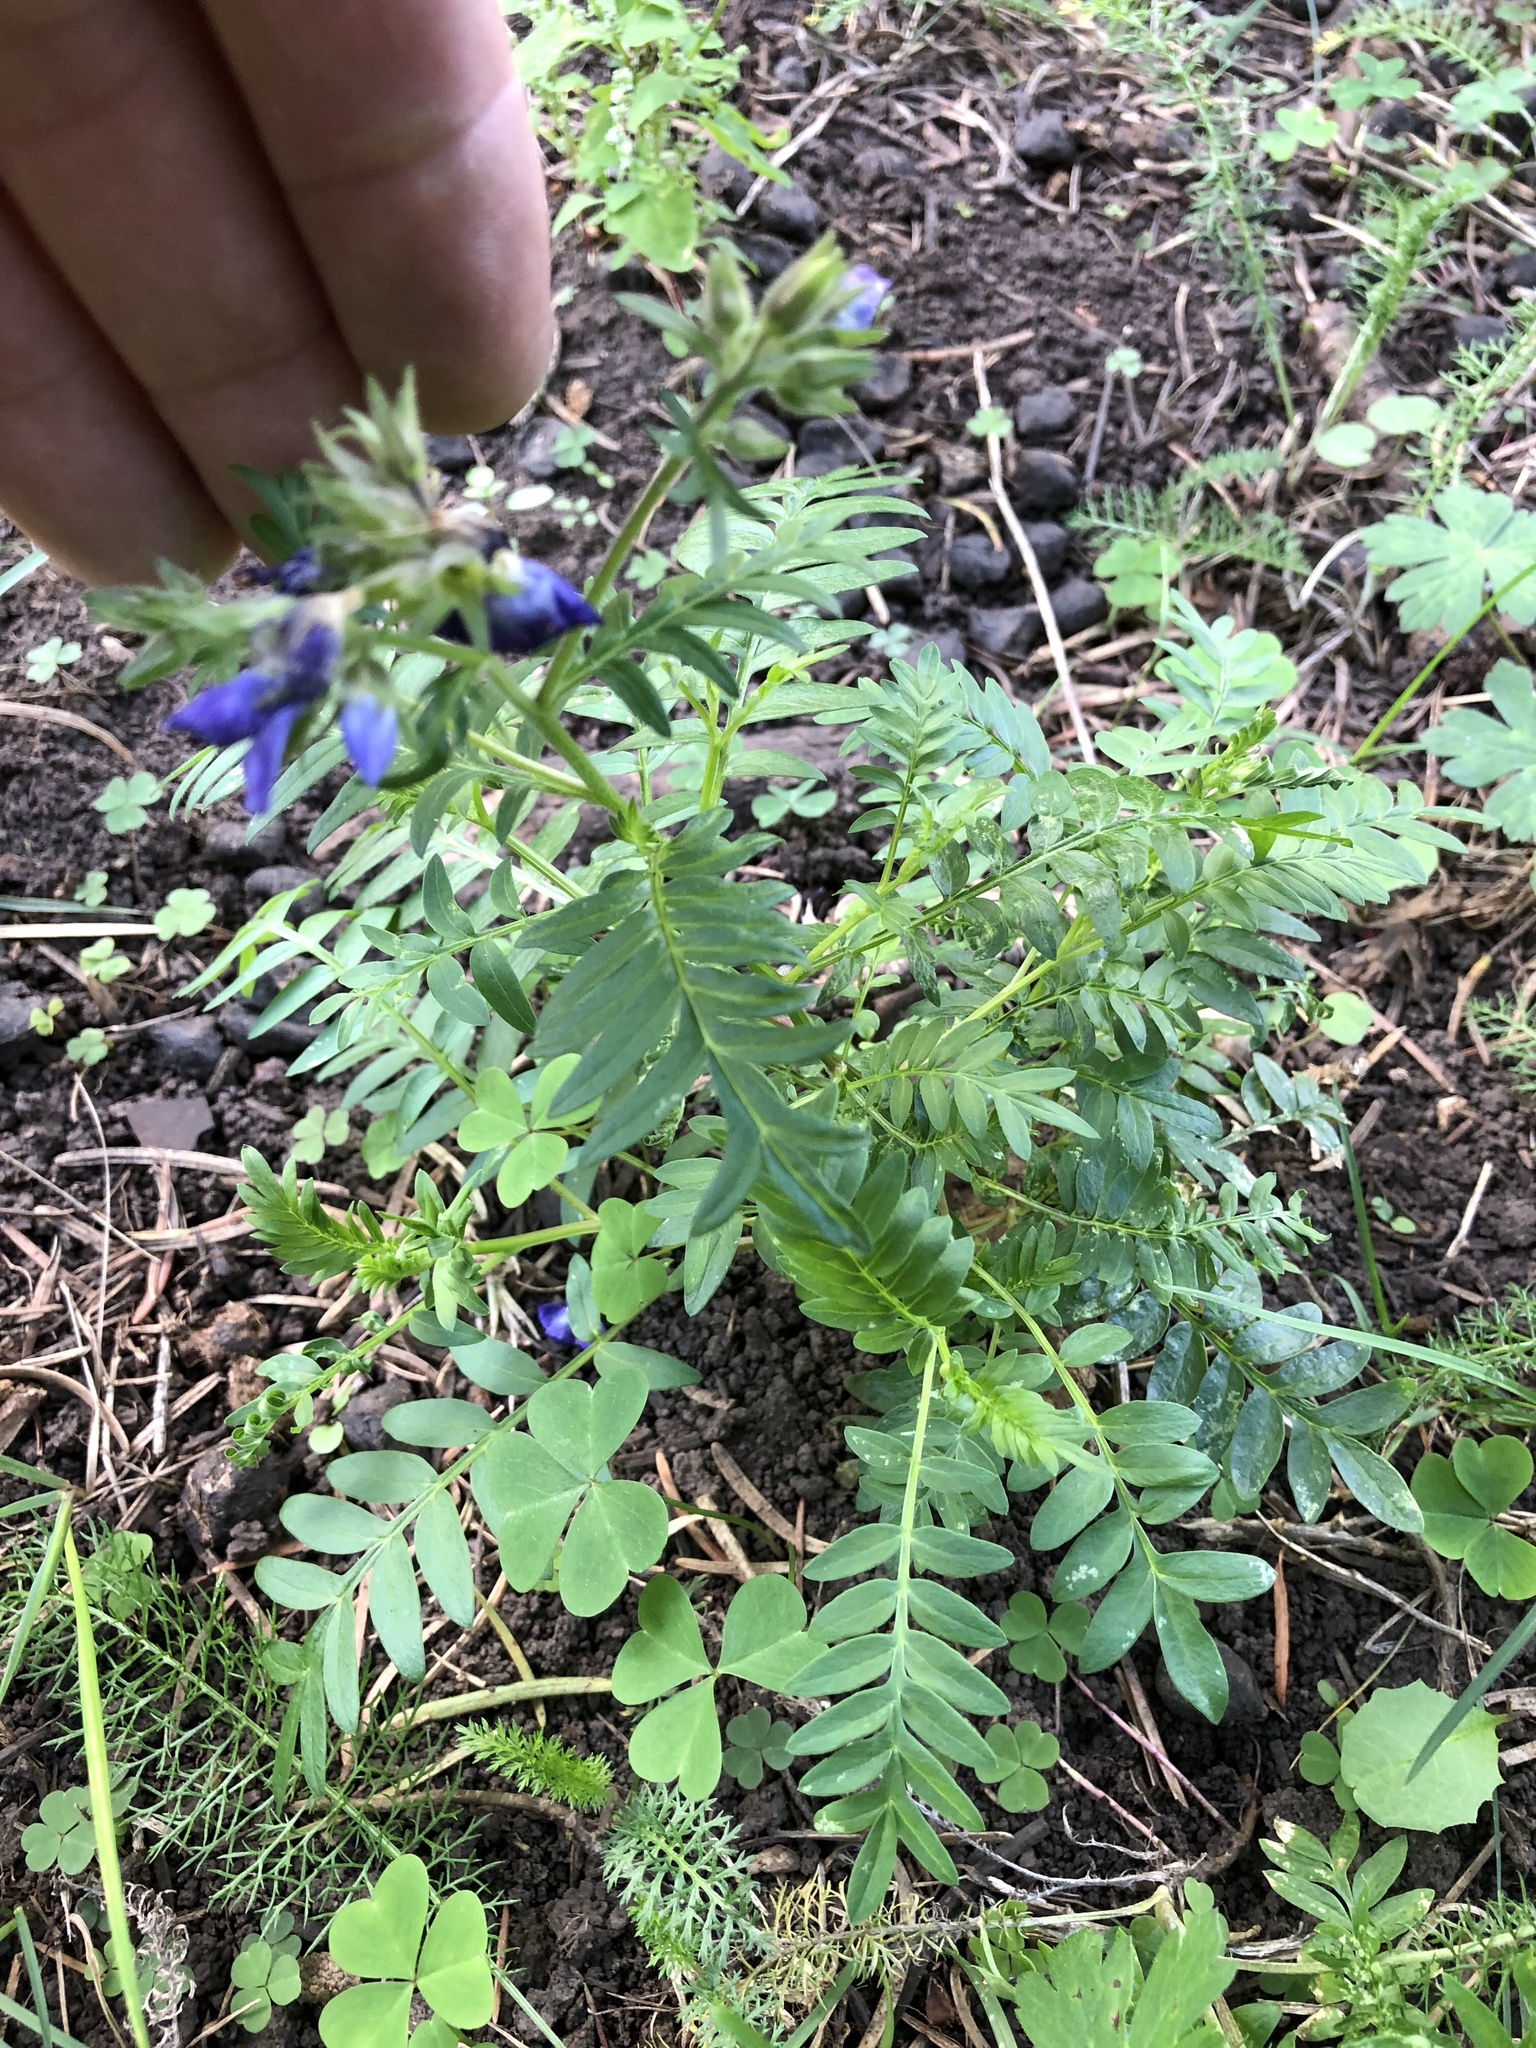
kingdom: Plantae
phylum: Tracheophyta
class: Magnoliopsida
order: Ericales
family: Polemoniaceae
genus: Polemonium
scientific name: Polemonium foliosissimum
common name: Leafy jacob's-ladder
